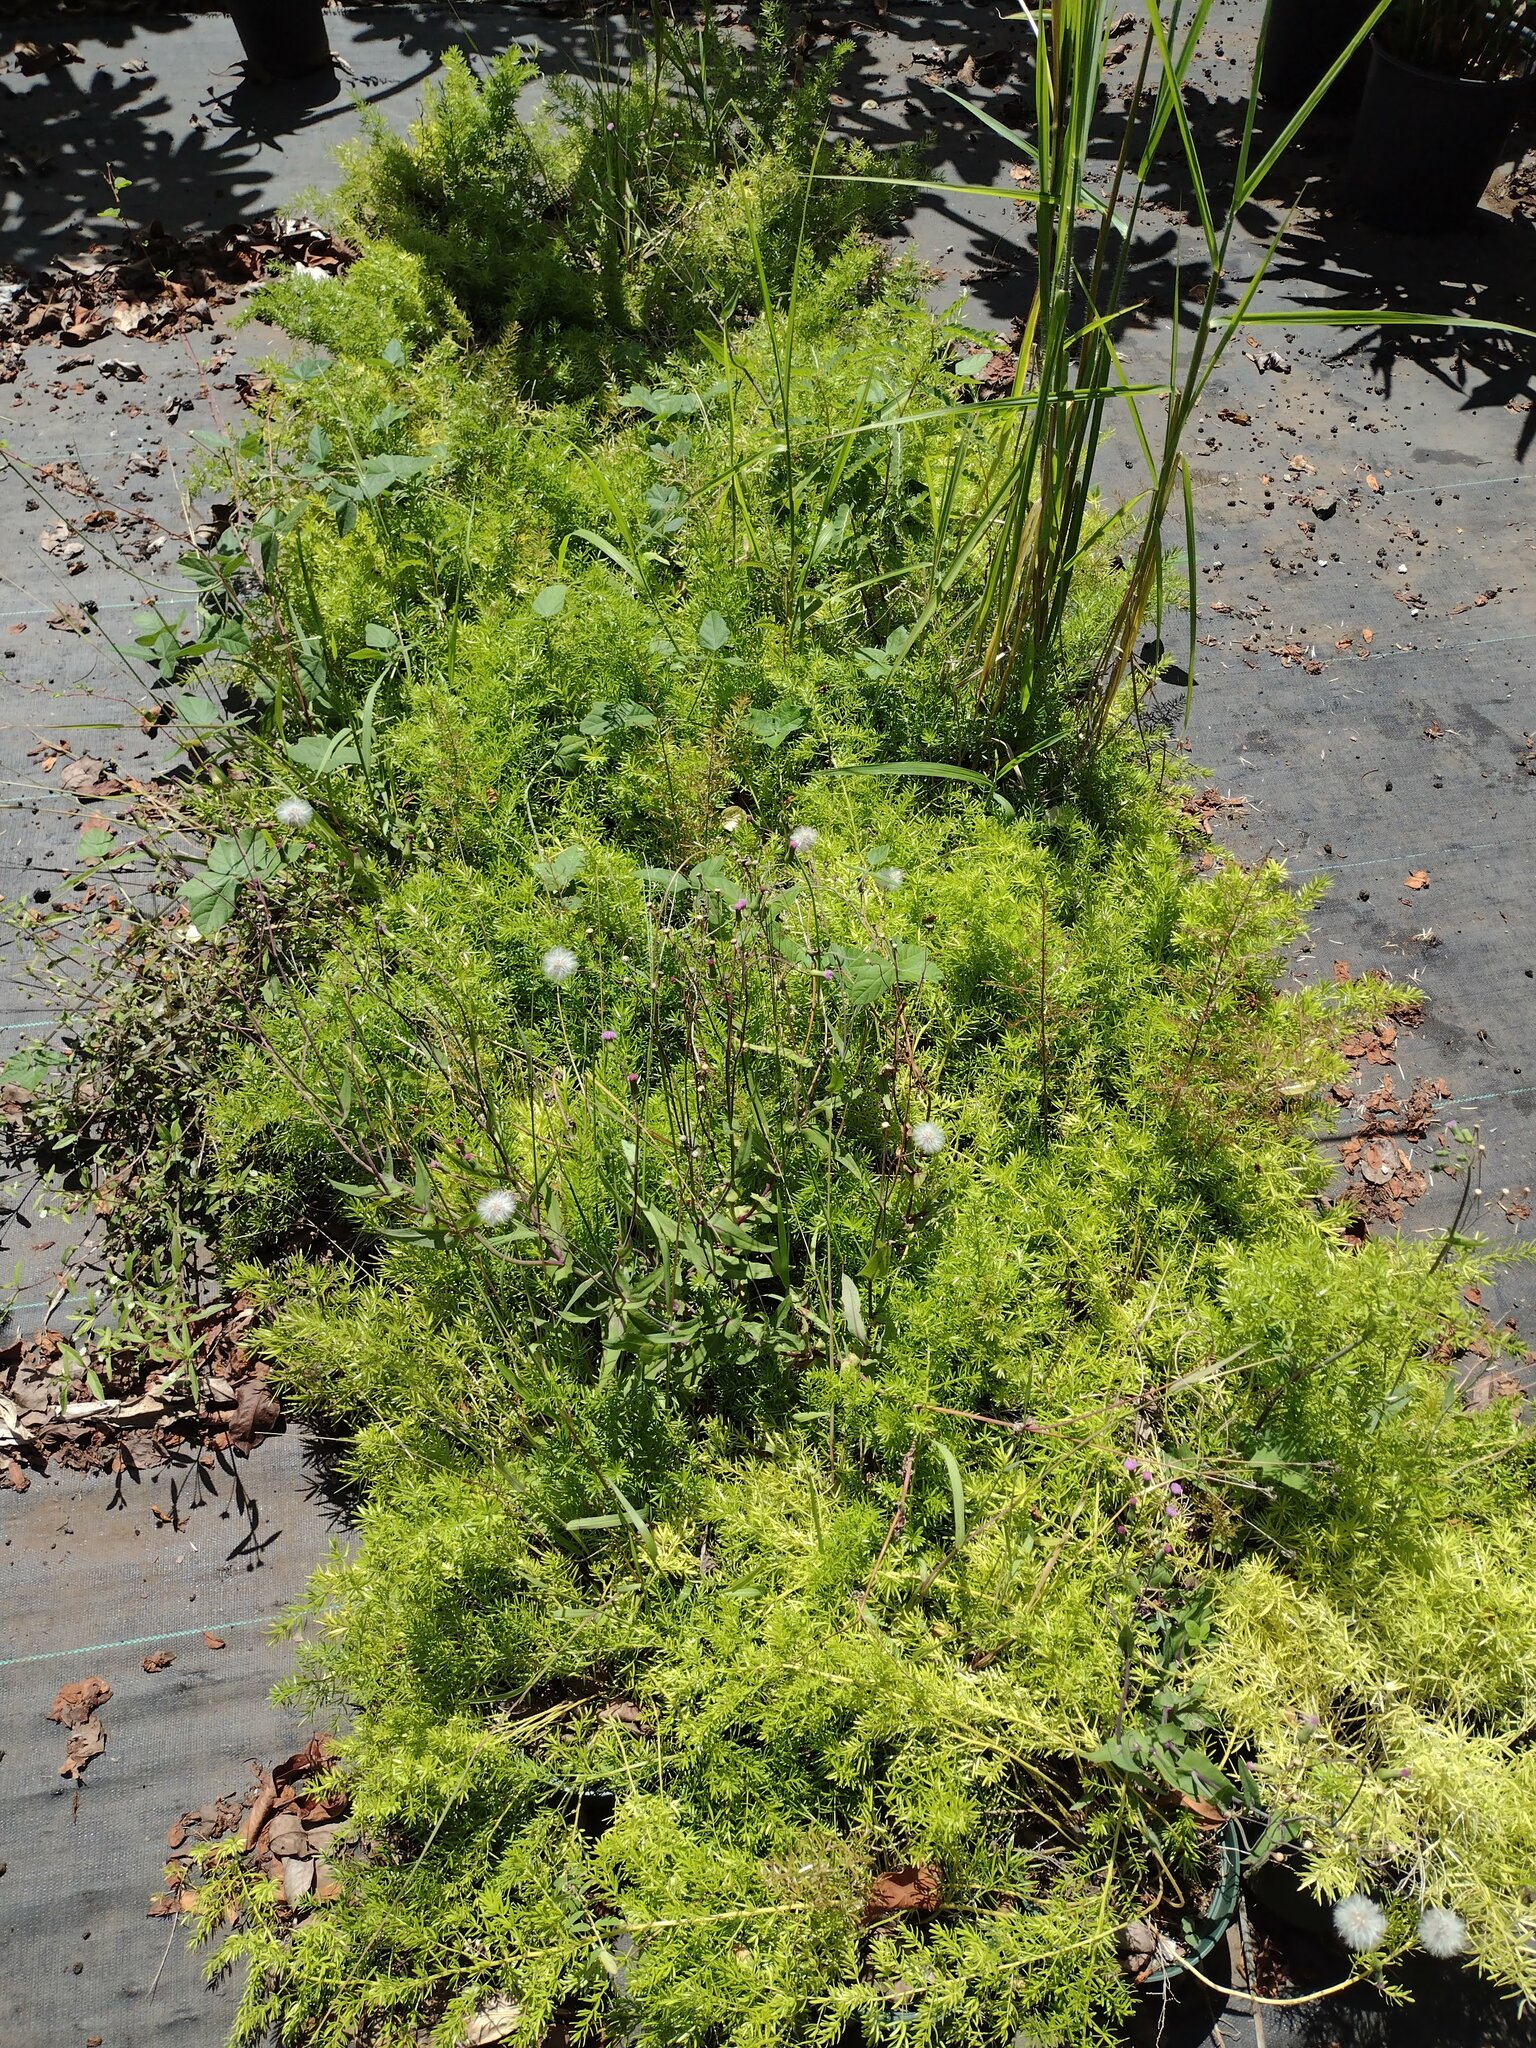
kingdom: Plantae
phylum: Tracheophyta
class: Liliopsida
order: Asparagales
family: Asparagaceae
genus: Asparagus
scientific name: Asparagus aethiopicus
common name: Sprenger's asparagus fern
